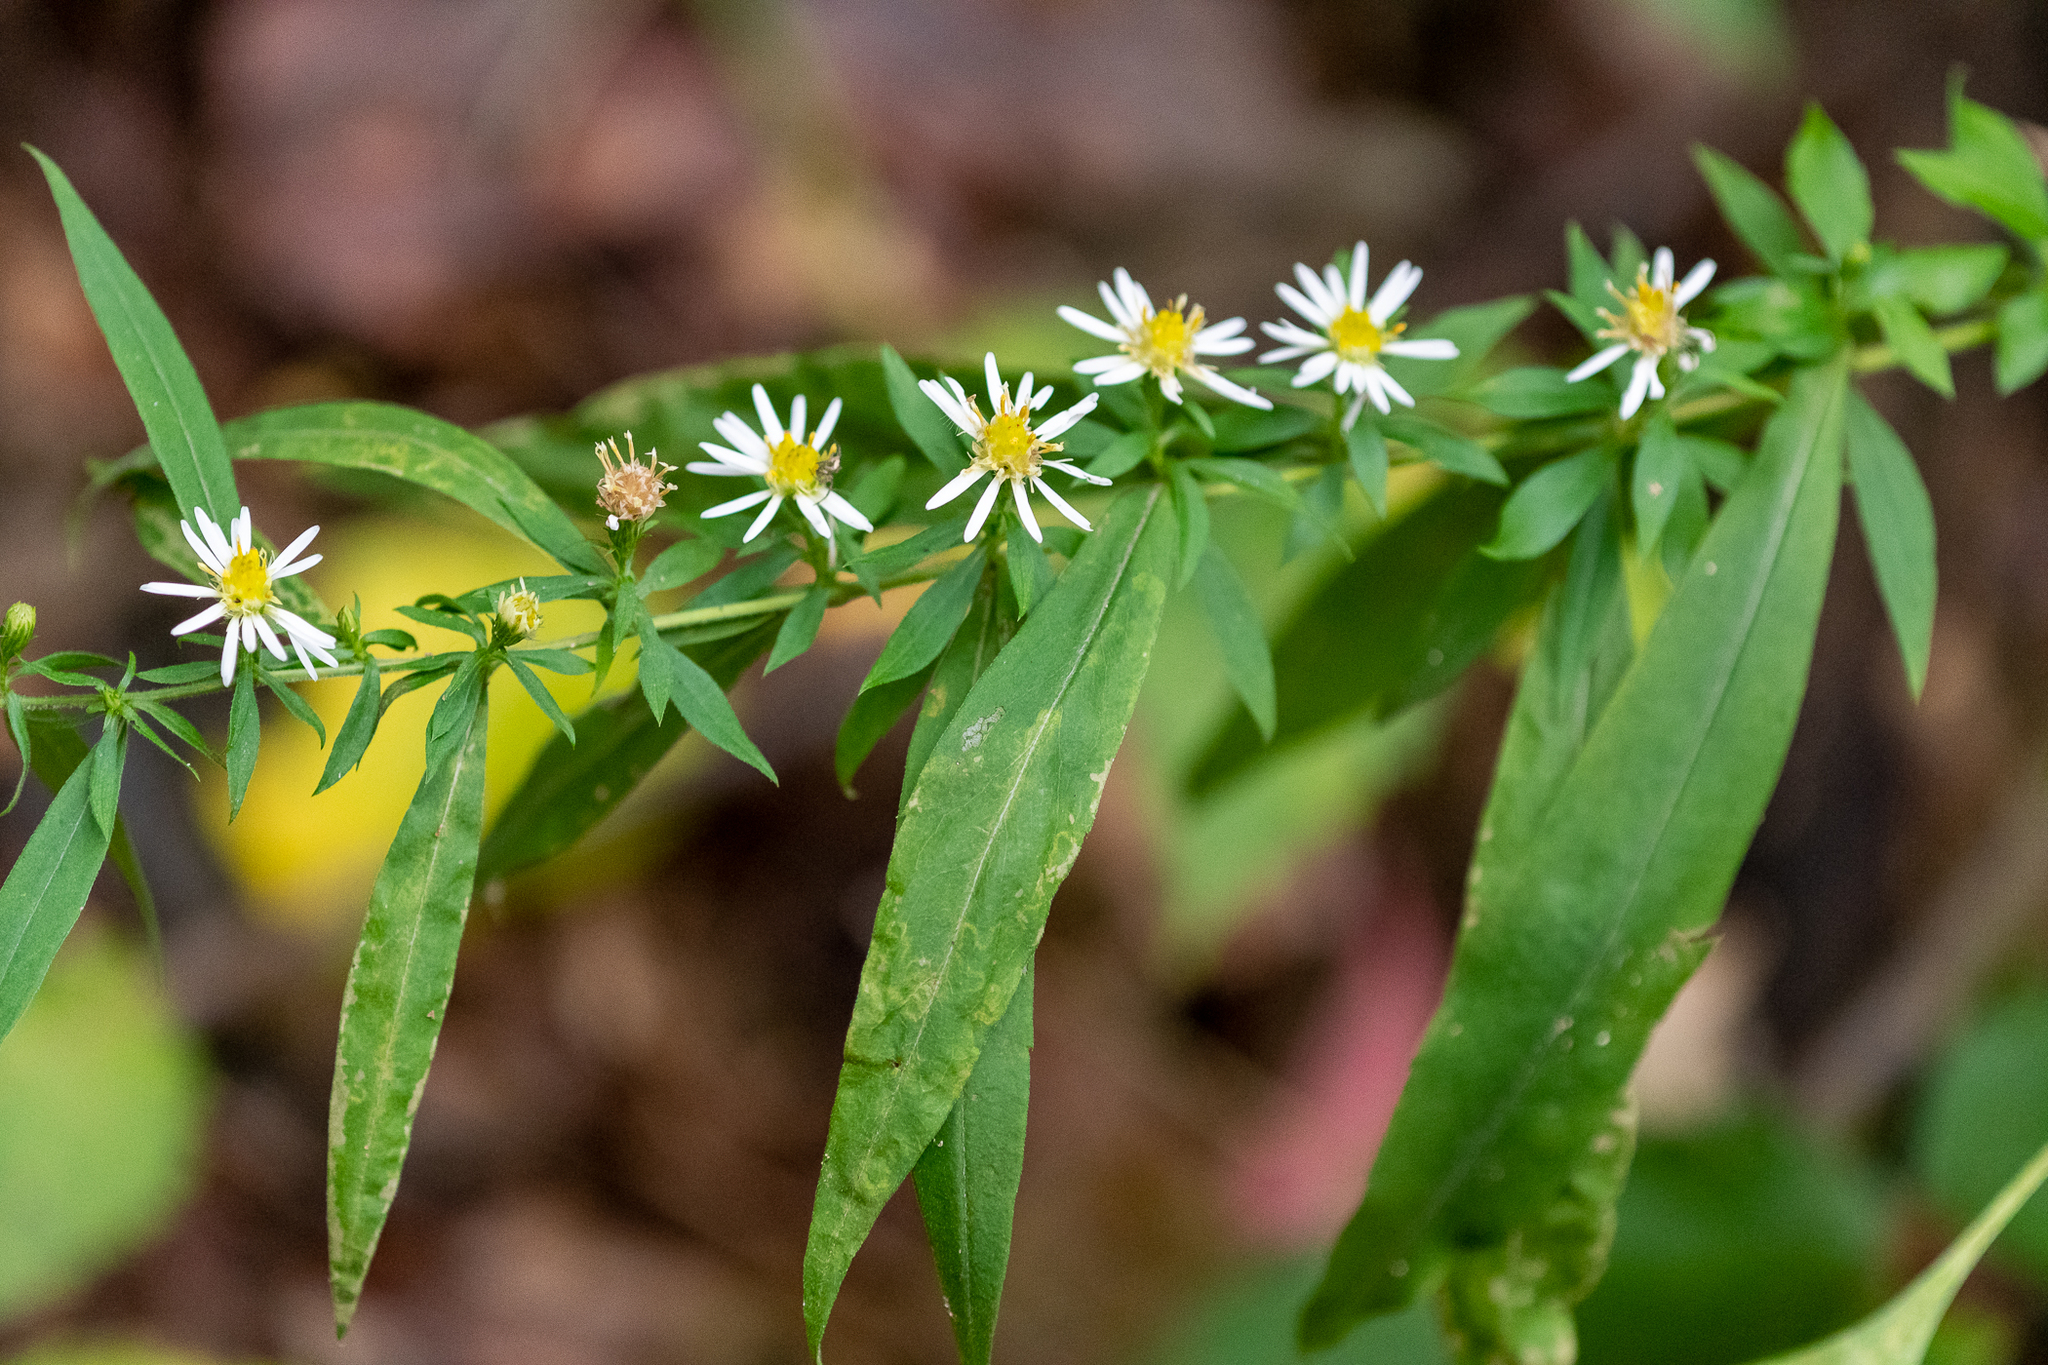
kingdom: Plantae
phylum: Tracheophyta
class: Magnoliopsida
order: Asterales
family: Asteraceae
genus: Symphyotrichum
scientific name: Symphyotrichum lateriflorum
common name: Calico aster
